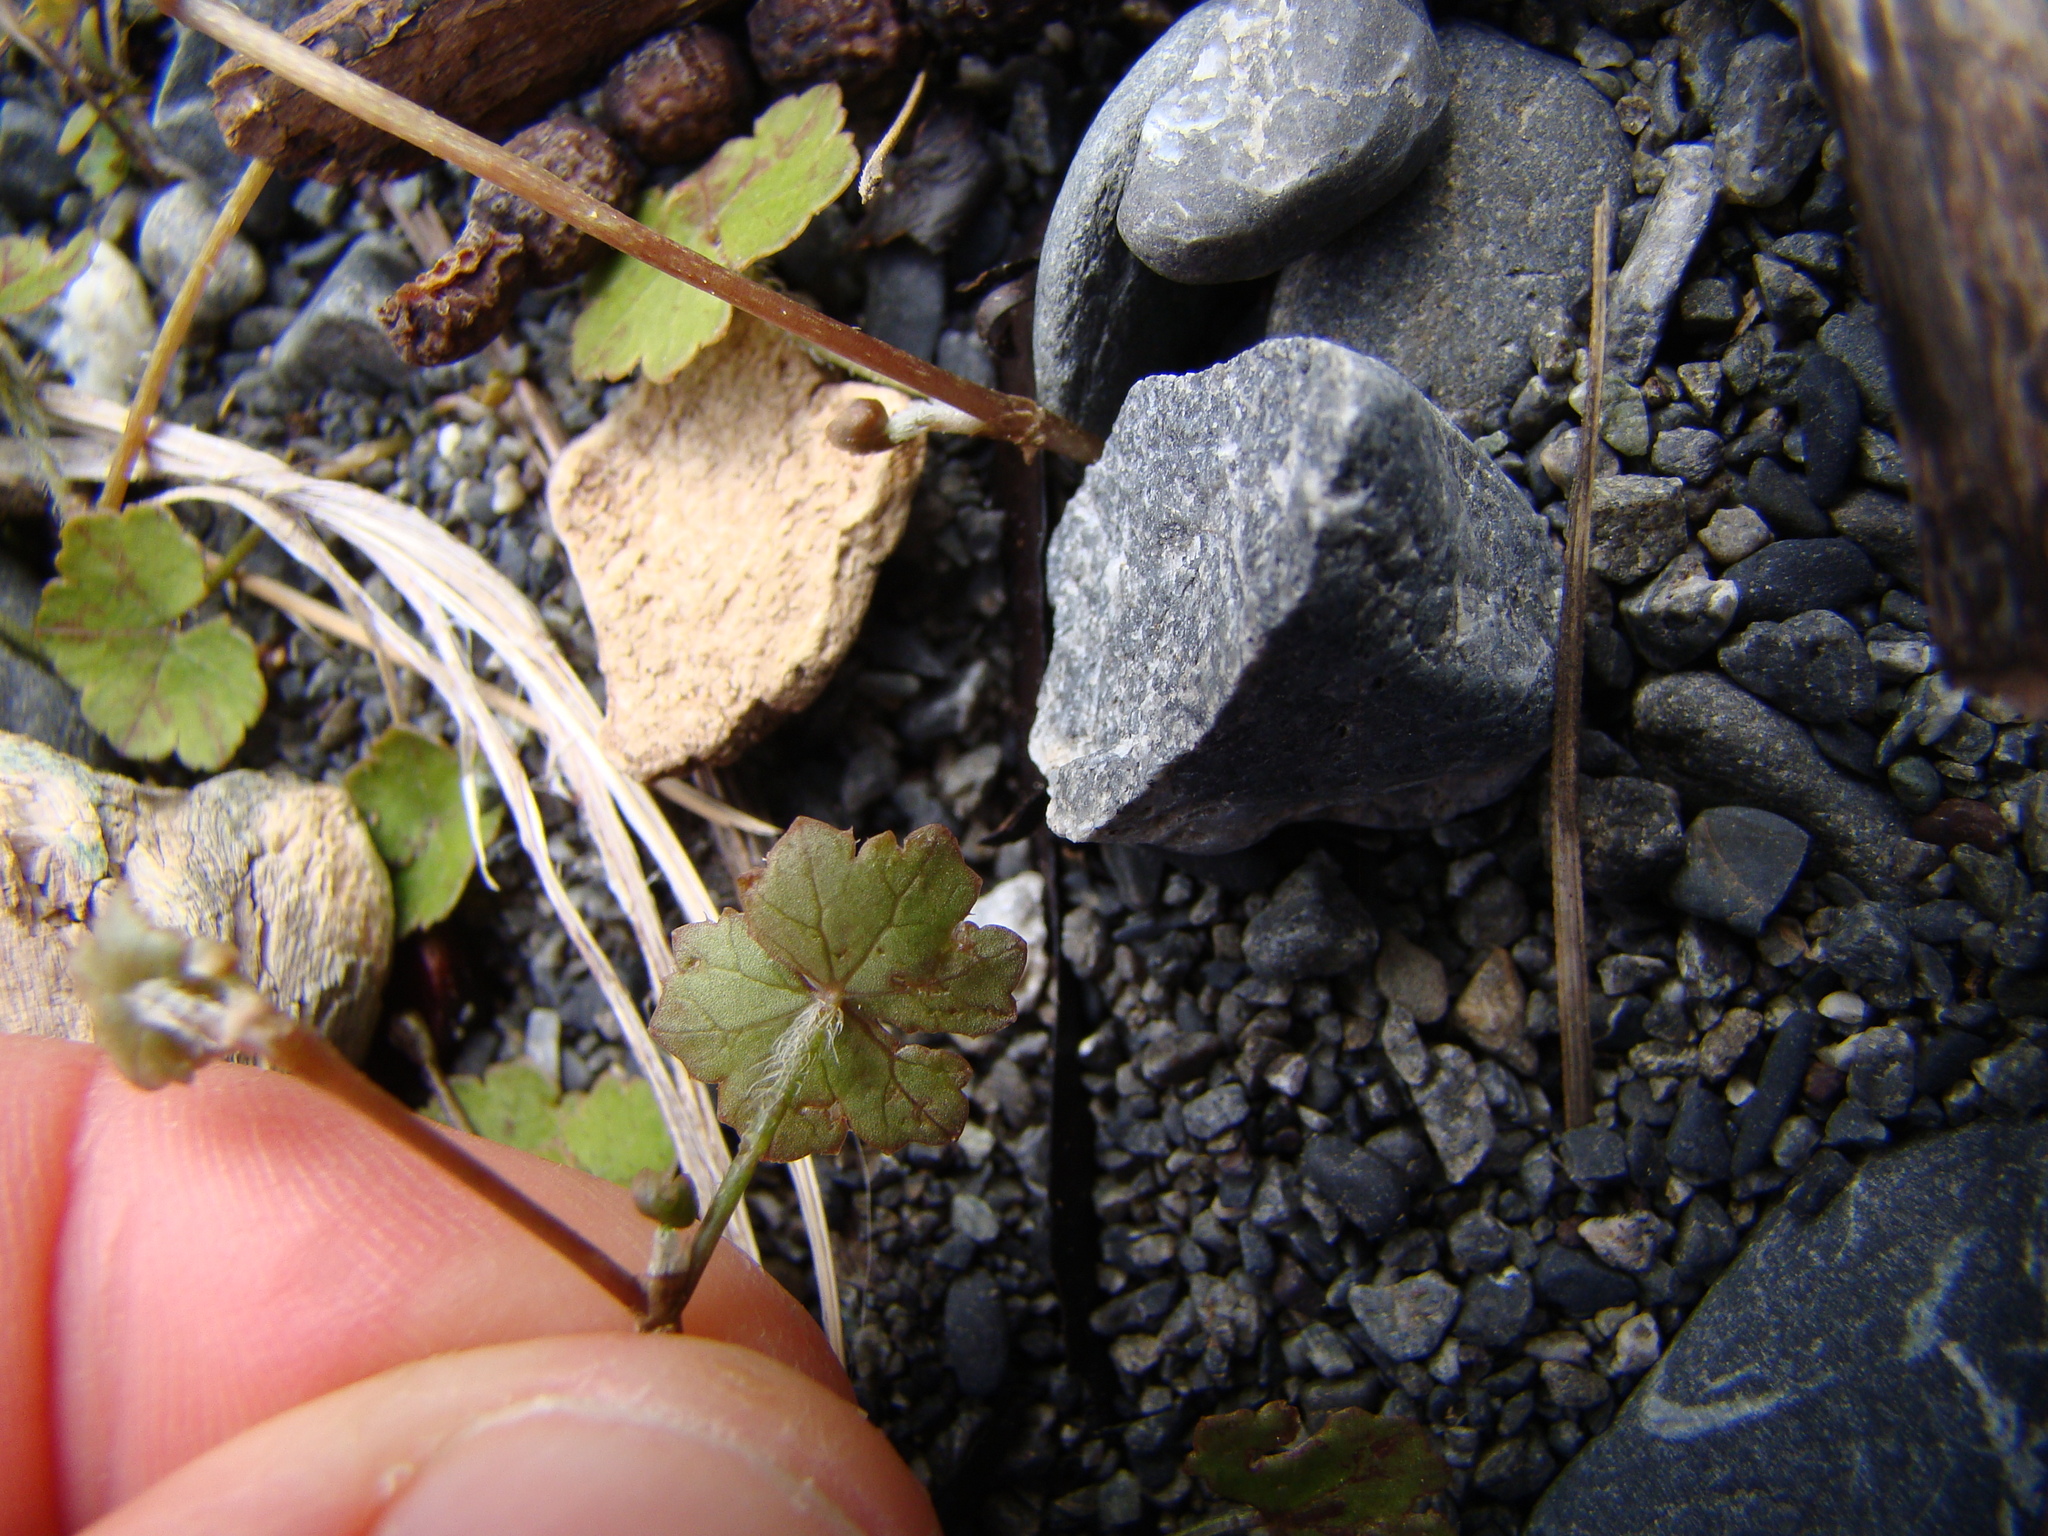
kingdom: Plantae
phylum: Tracheophyta
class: Magnoliopsida
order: Apiales
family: Araliaceae
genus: Hydrocotyle
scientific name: Hydrocotyle microphylla
